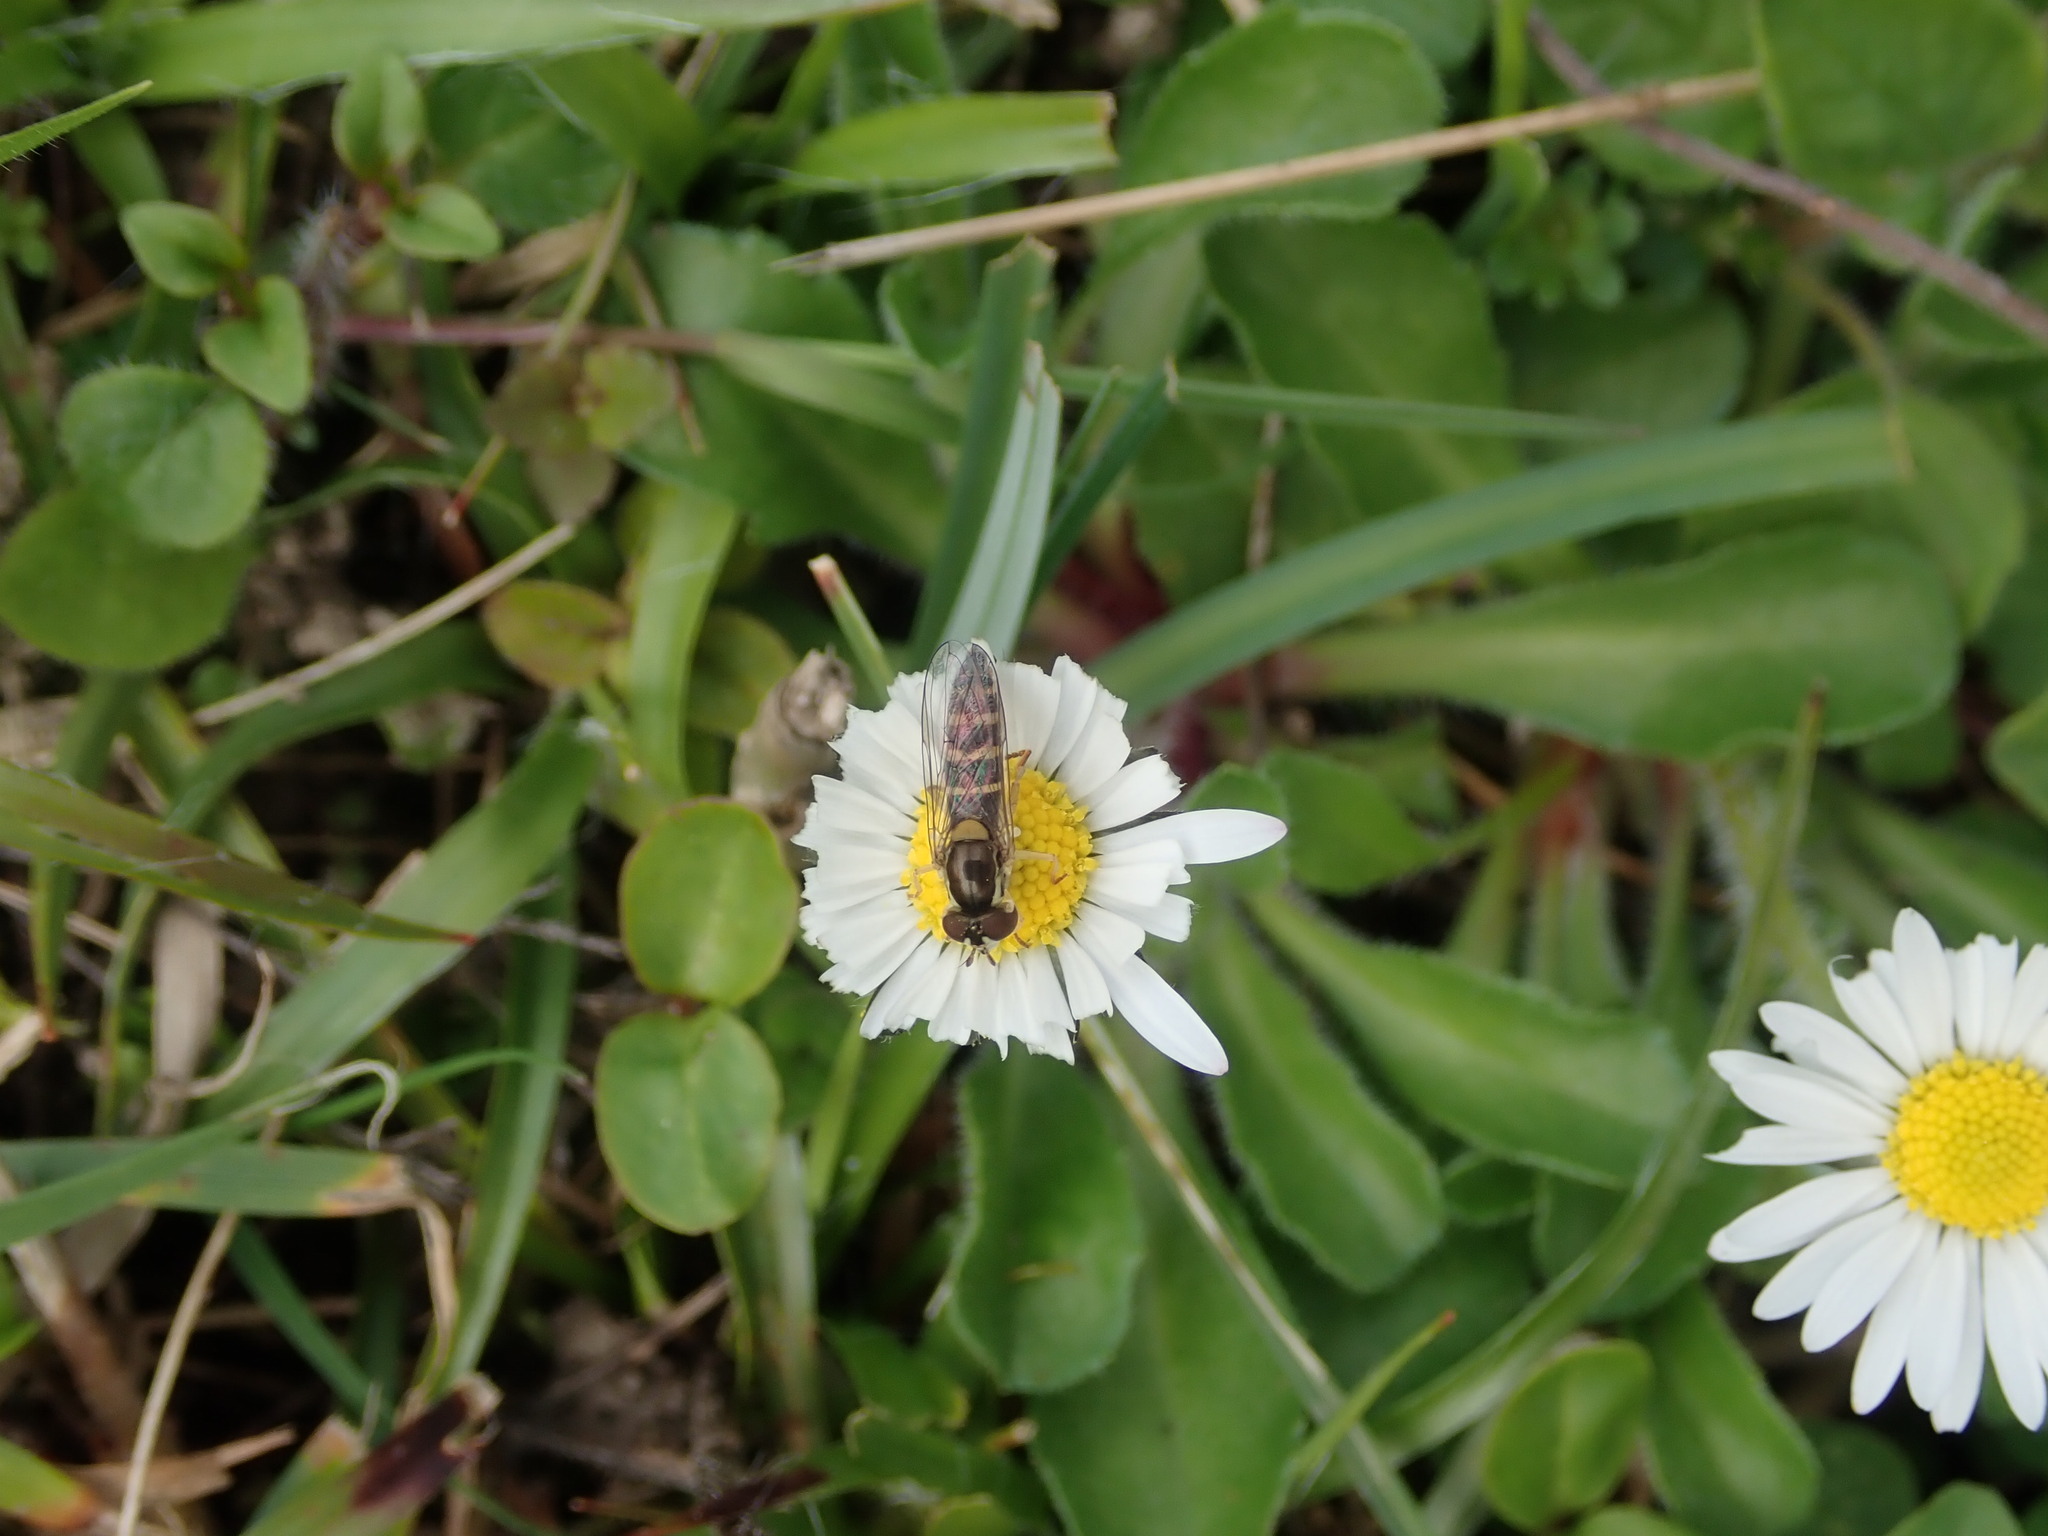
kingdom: Animalia
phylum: Arthropoda
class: Insecta
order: Diptera
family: Syrphidae
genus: Sphaerophoria
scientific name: Sphaerophoria
